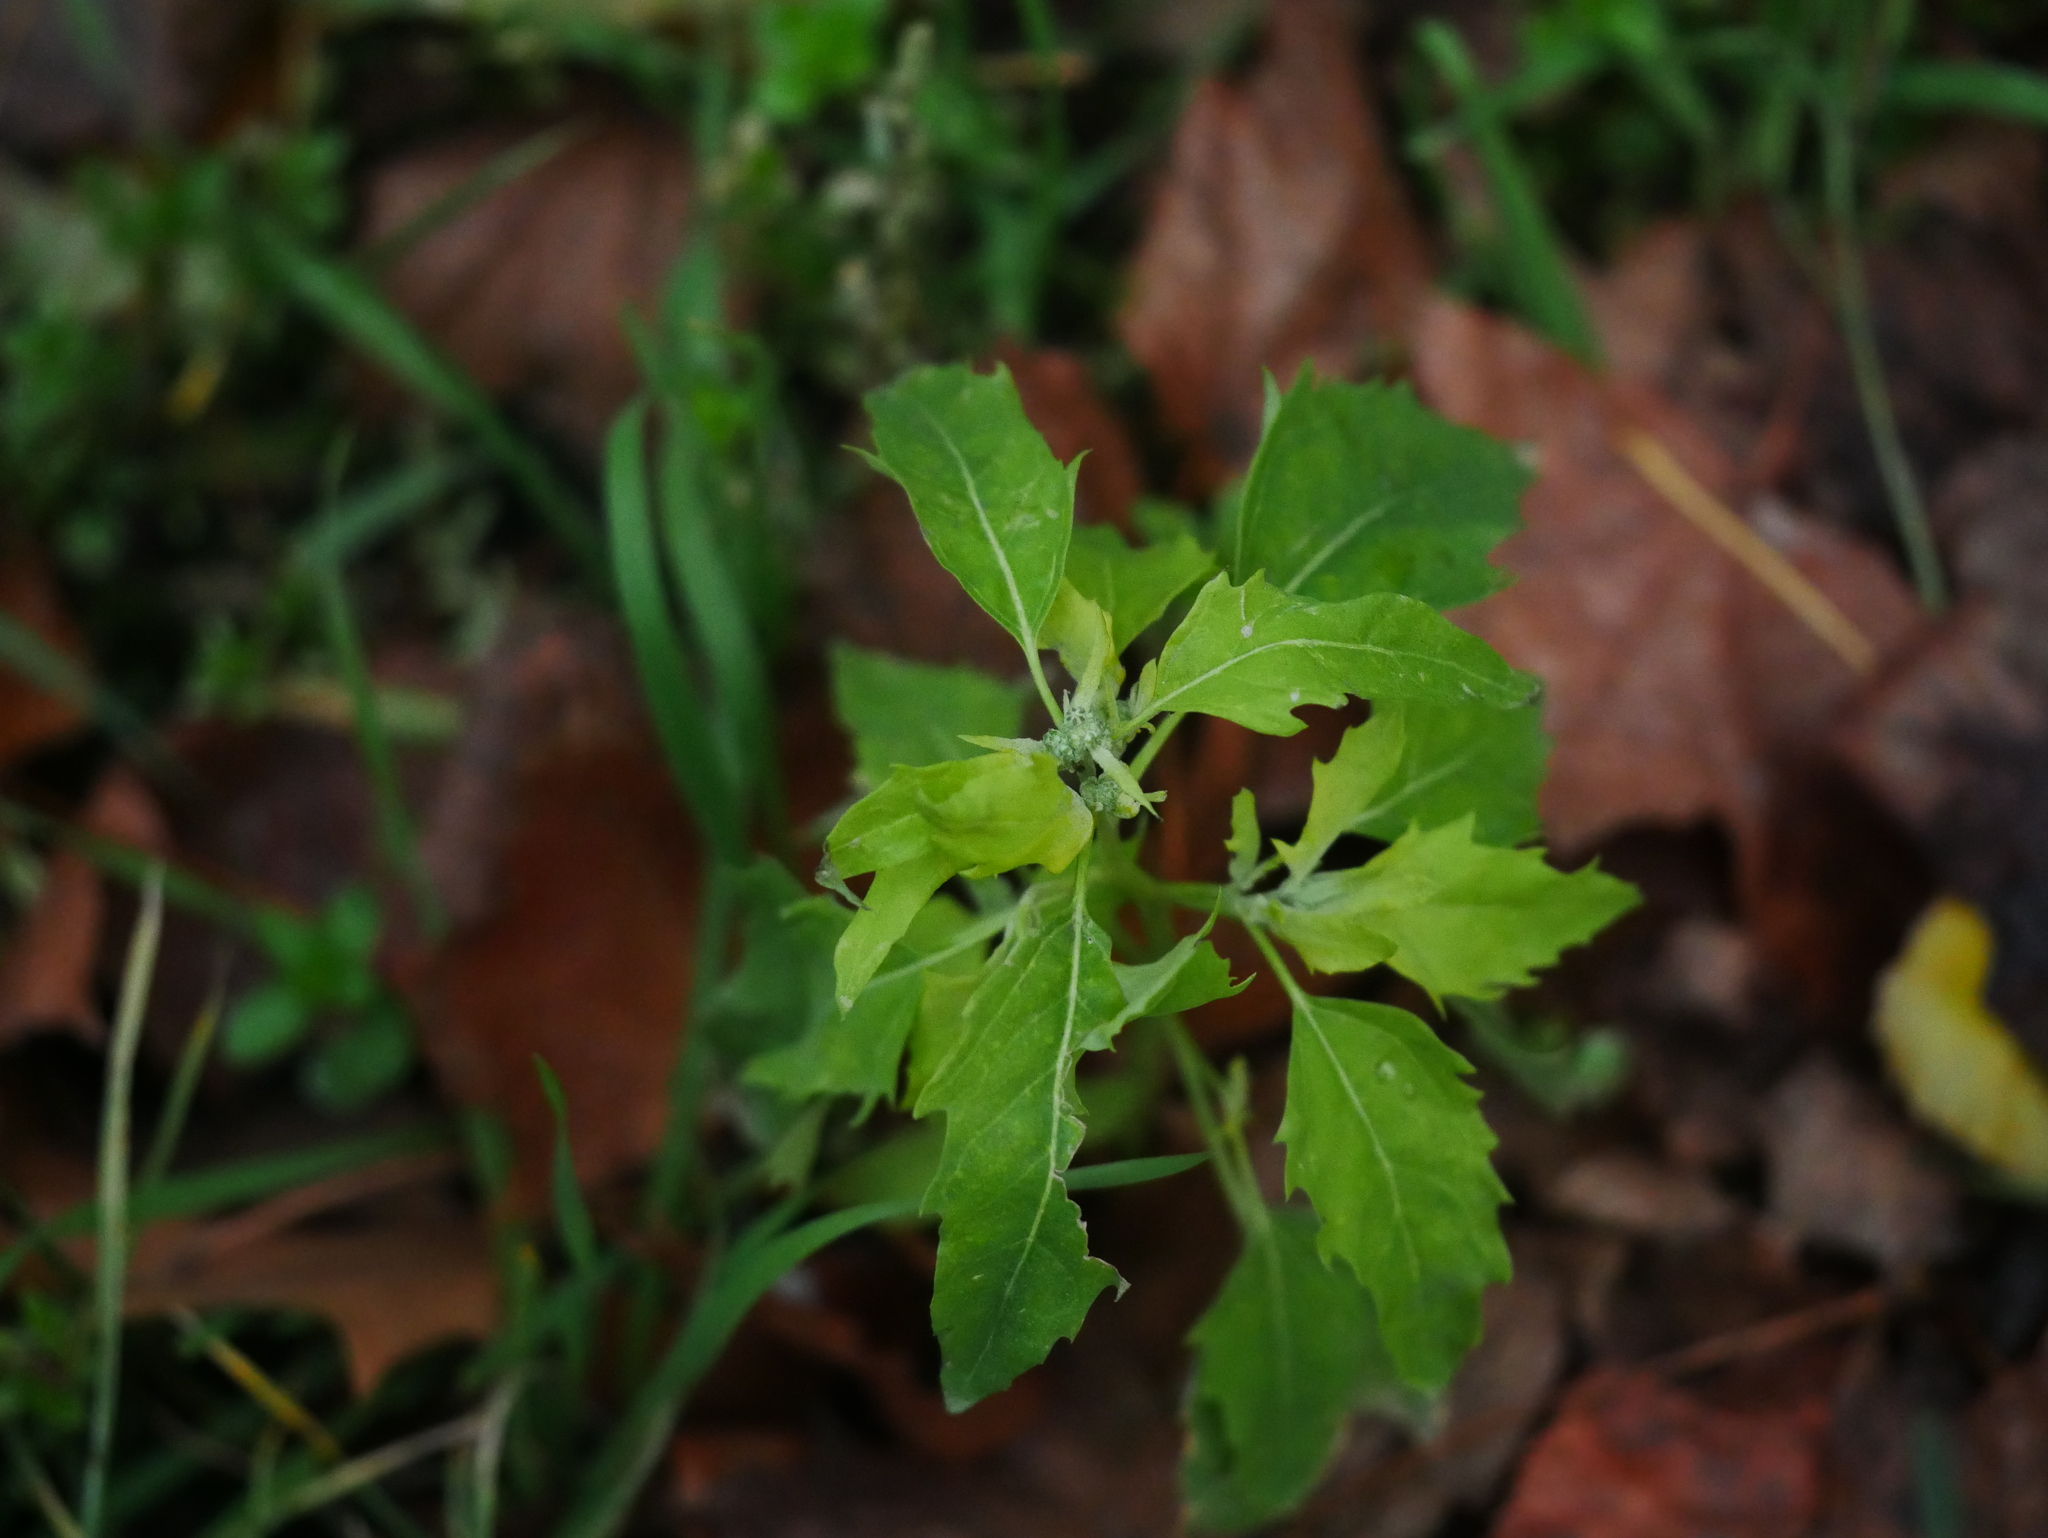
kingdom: Plantae
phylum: Tracheophyta
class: Magnoliopsida
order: Caryophyllales
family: Amaranthaceae
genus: Chenopodium
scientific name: Chenopodium album
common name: Fat-hen
